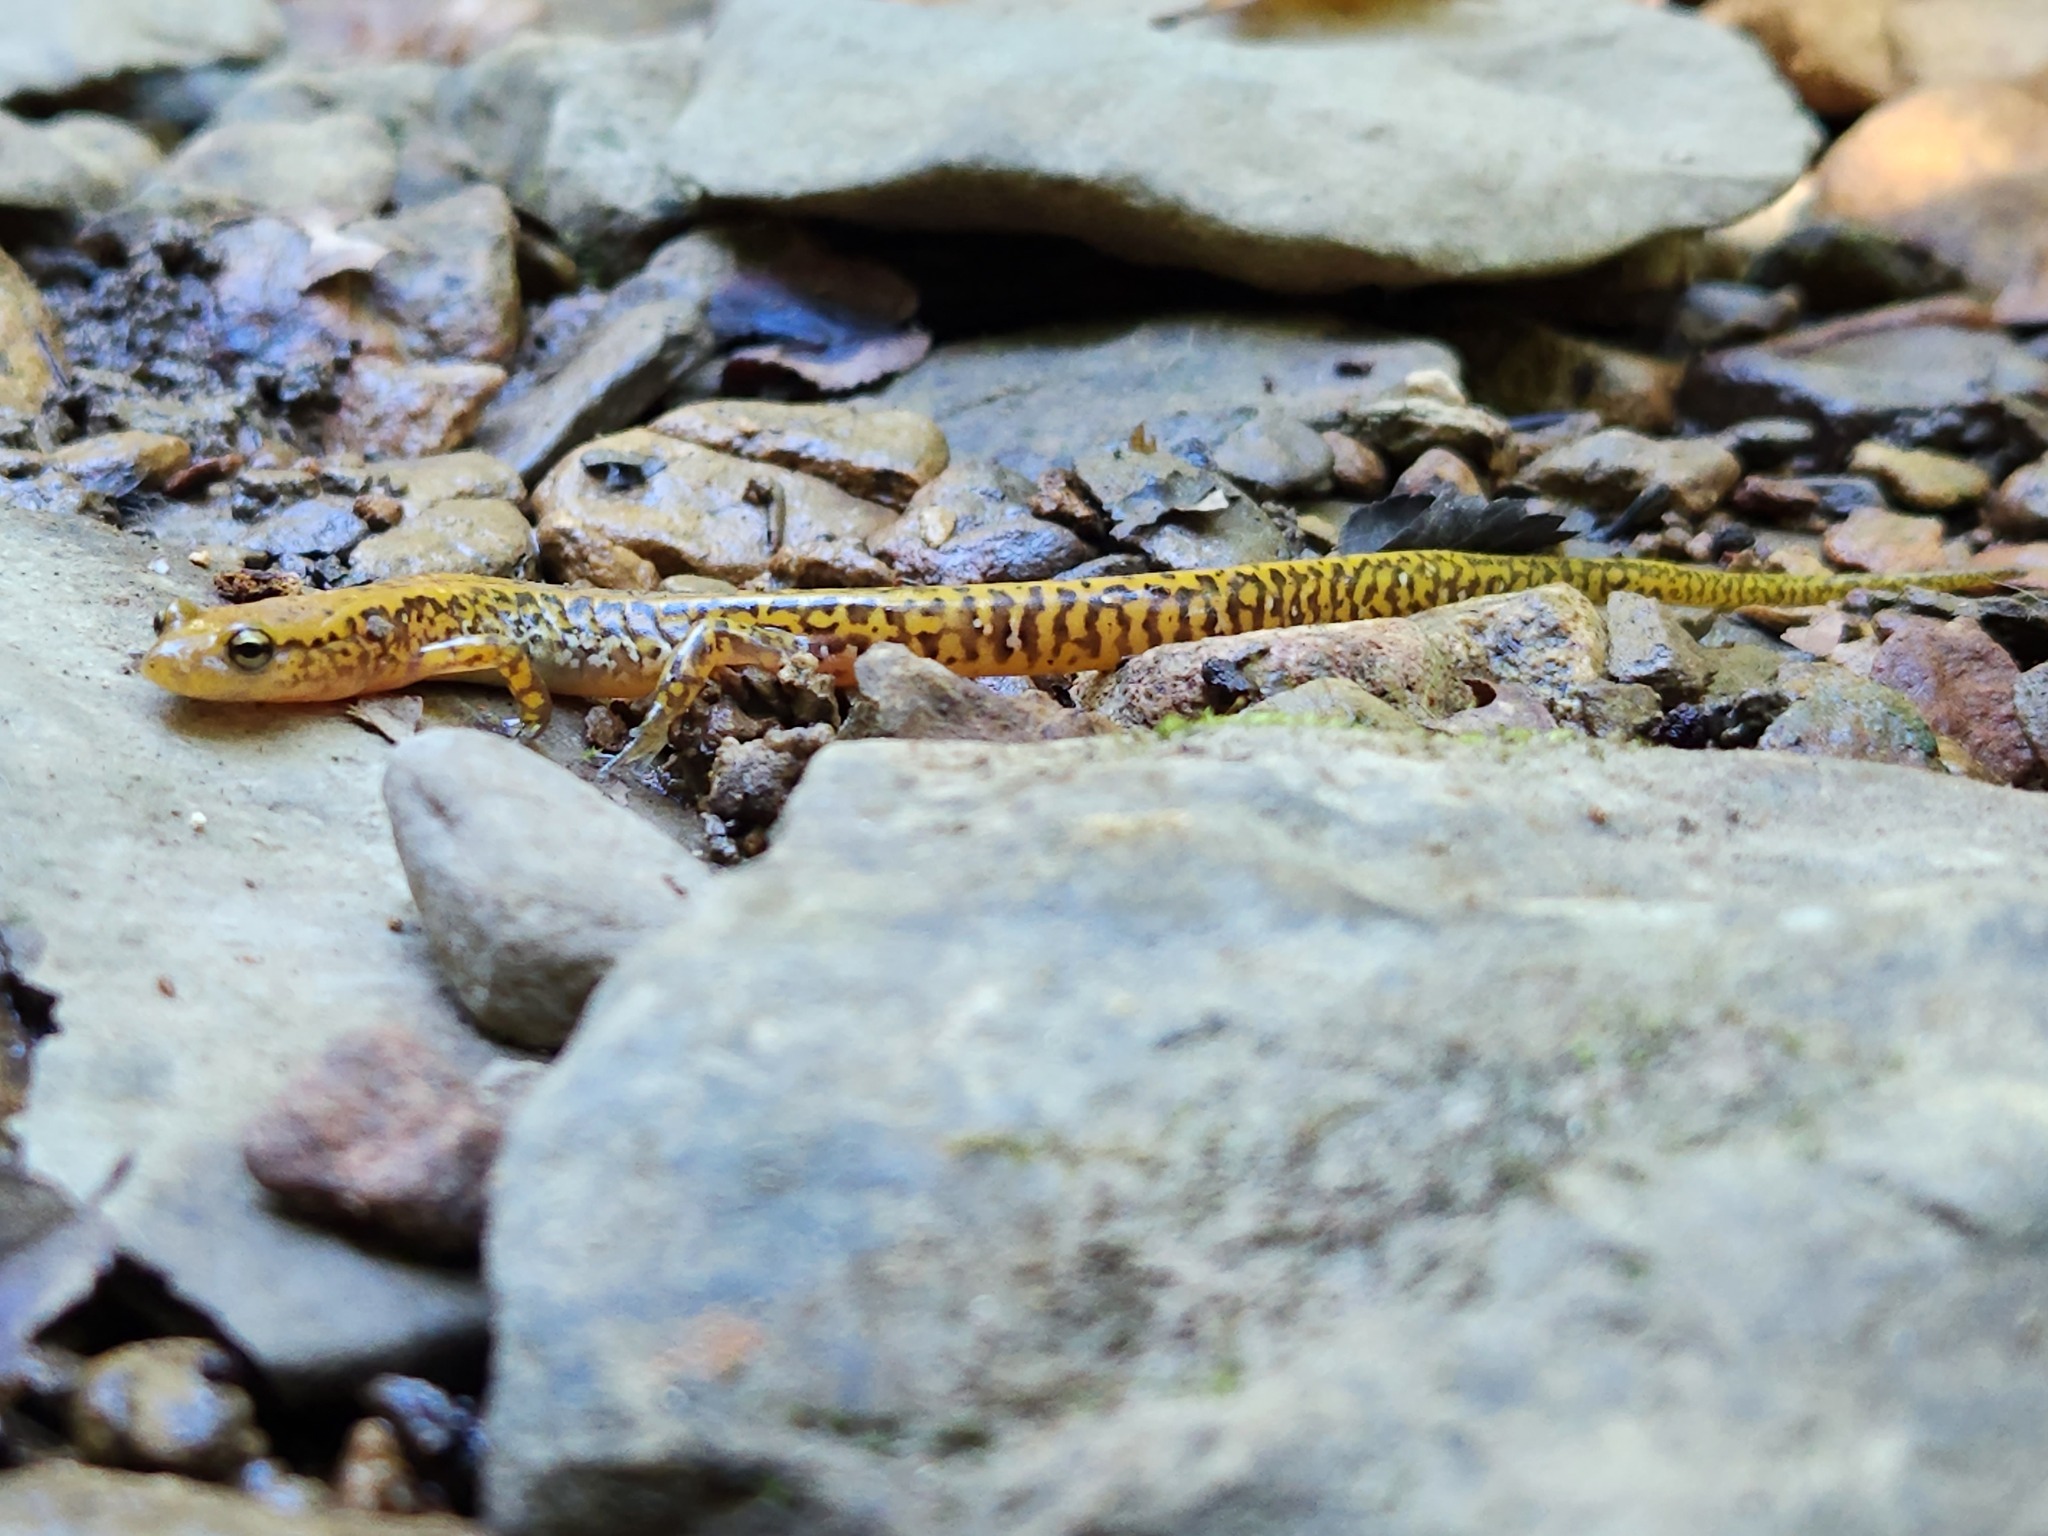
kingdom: Animalia
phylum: Chordata
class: Amphibia
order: Caudata
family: Plethodontidae
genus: Eurycea
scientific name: Eurycea longicauda
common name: Long-tailed salamander
